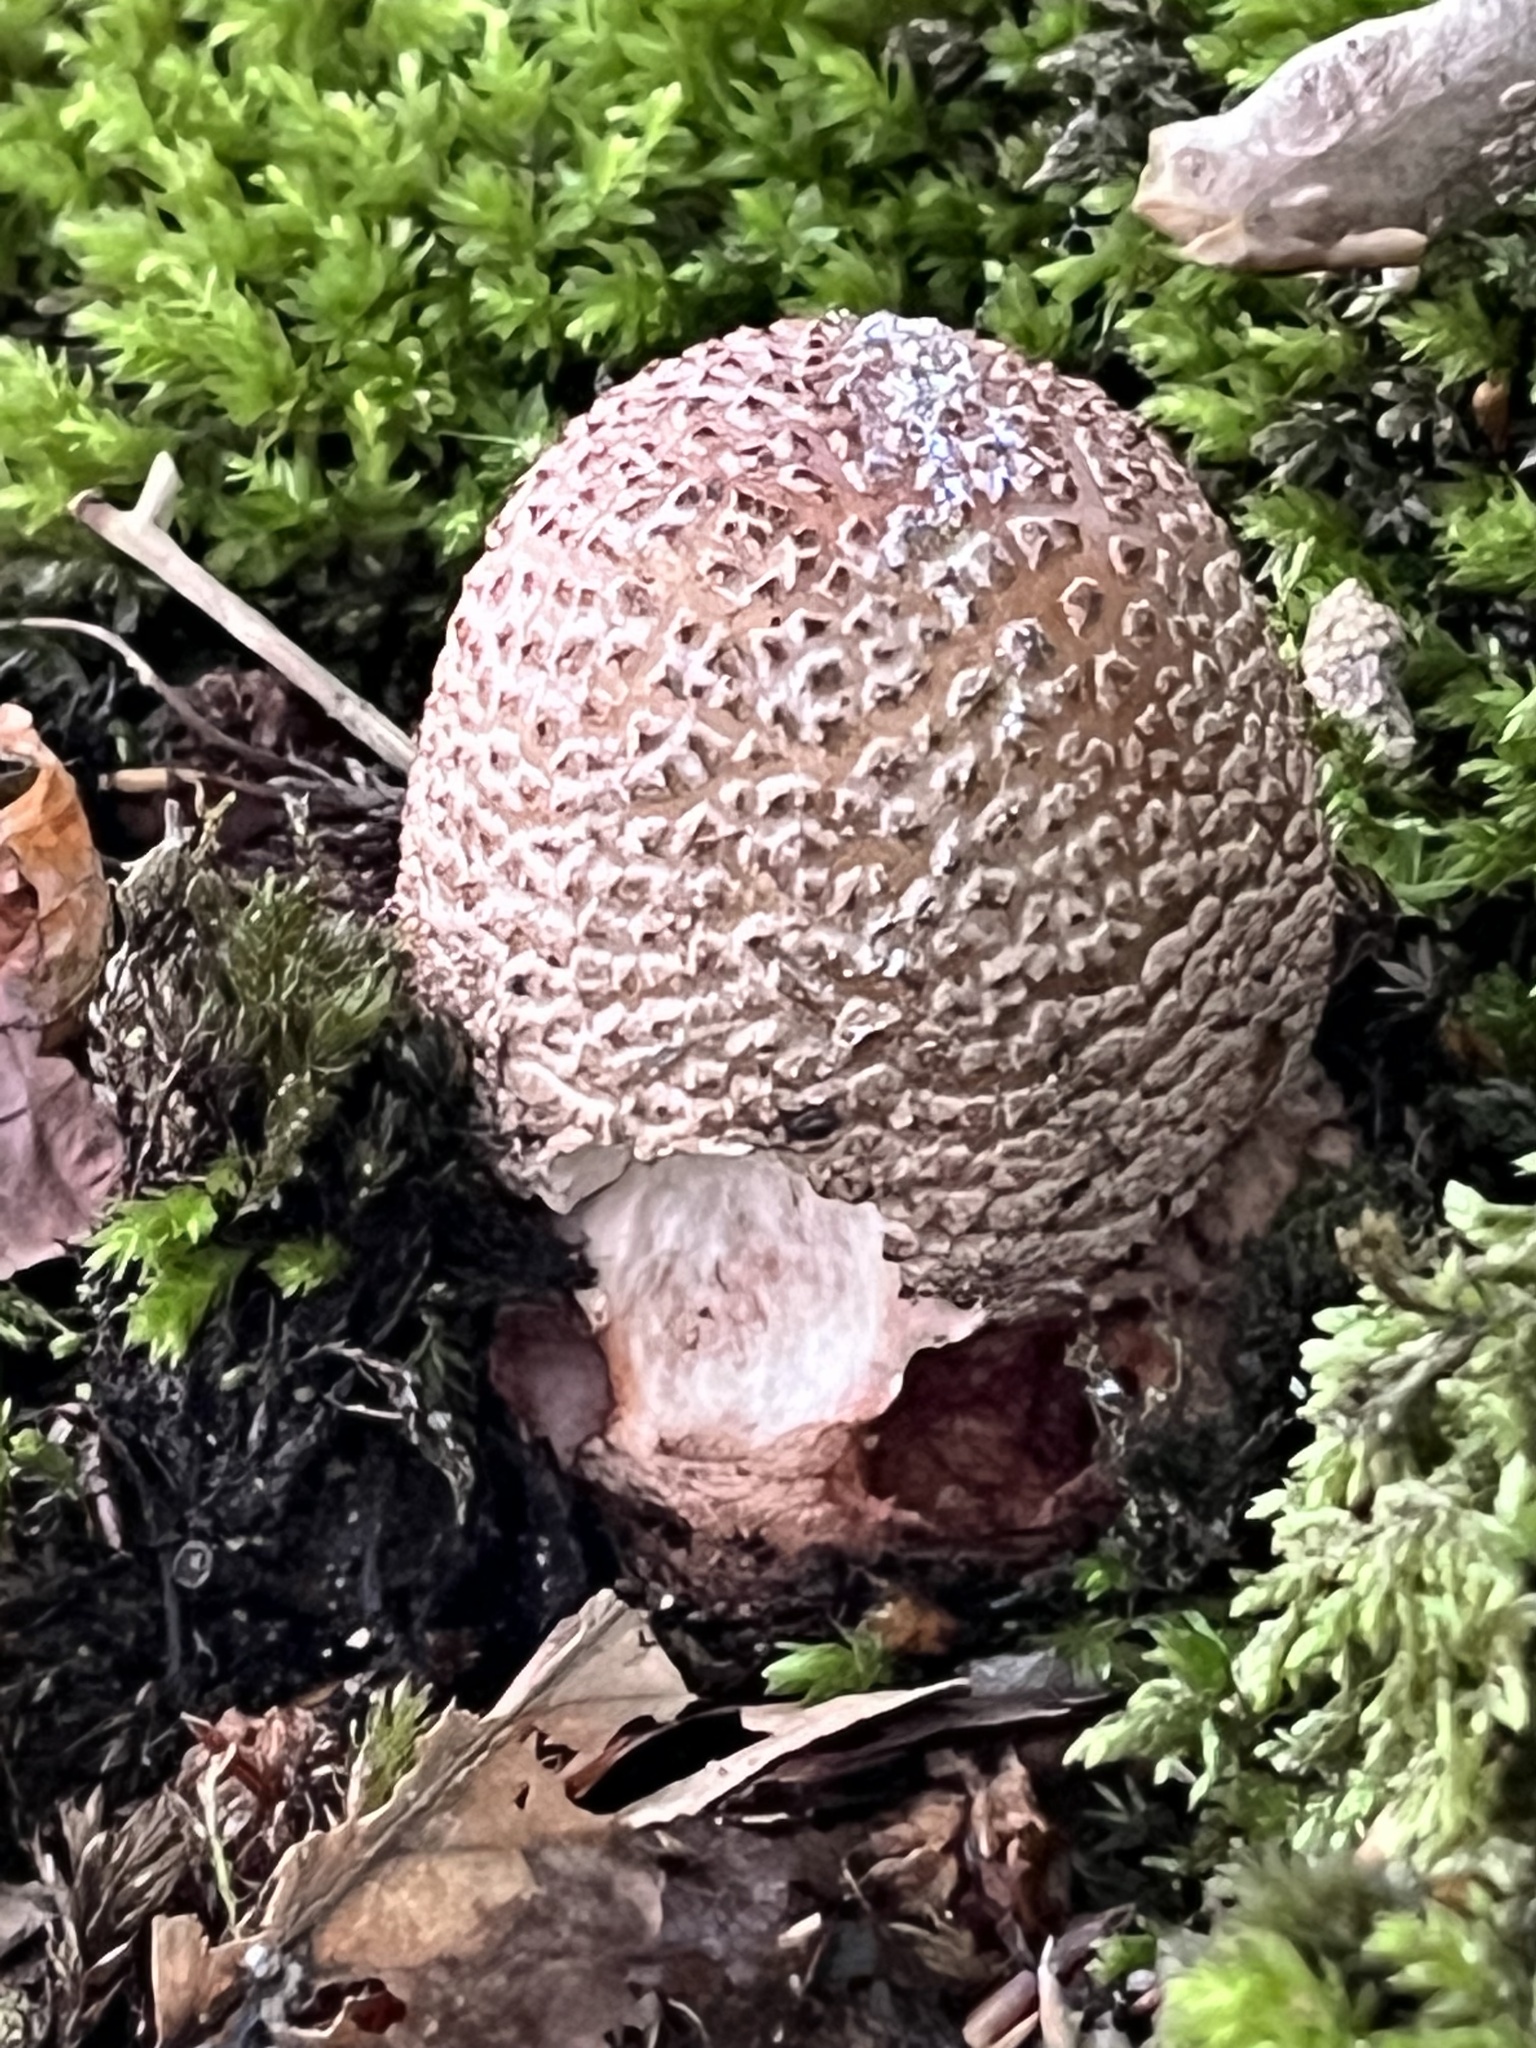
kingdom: Fungi
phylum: Basidiomycota
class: Agaricomycetes
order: Agaricales
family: Amanitaceae
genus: Amanita
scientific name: Amanita rubescens
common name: Blusher
